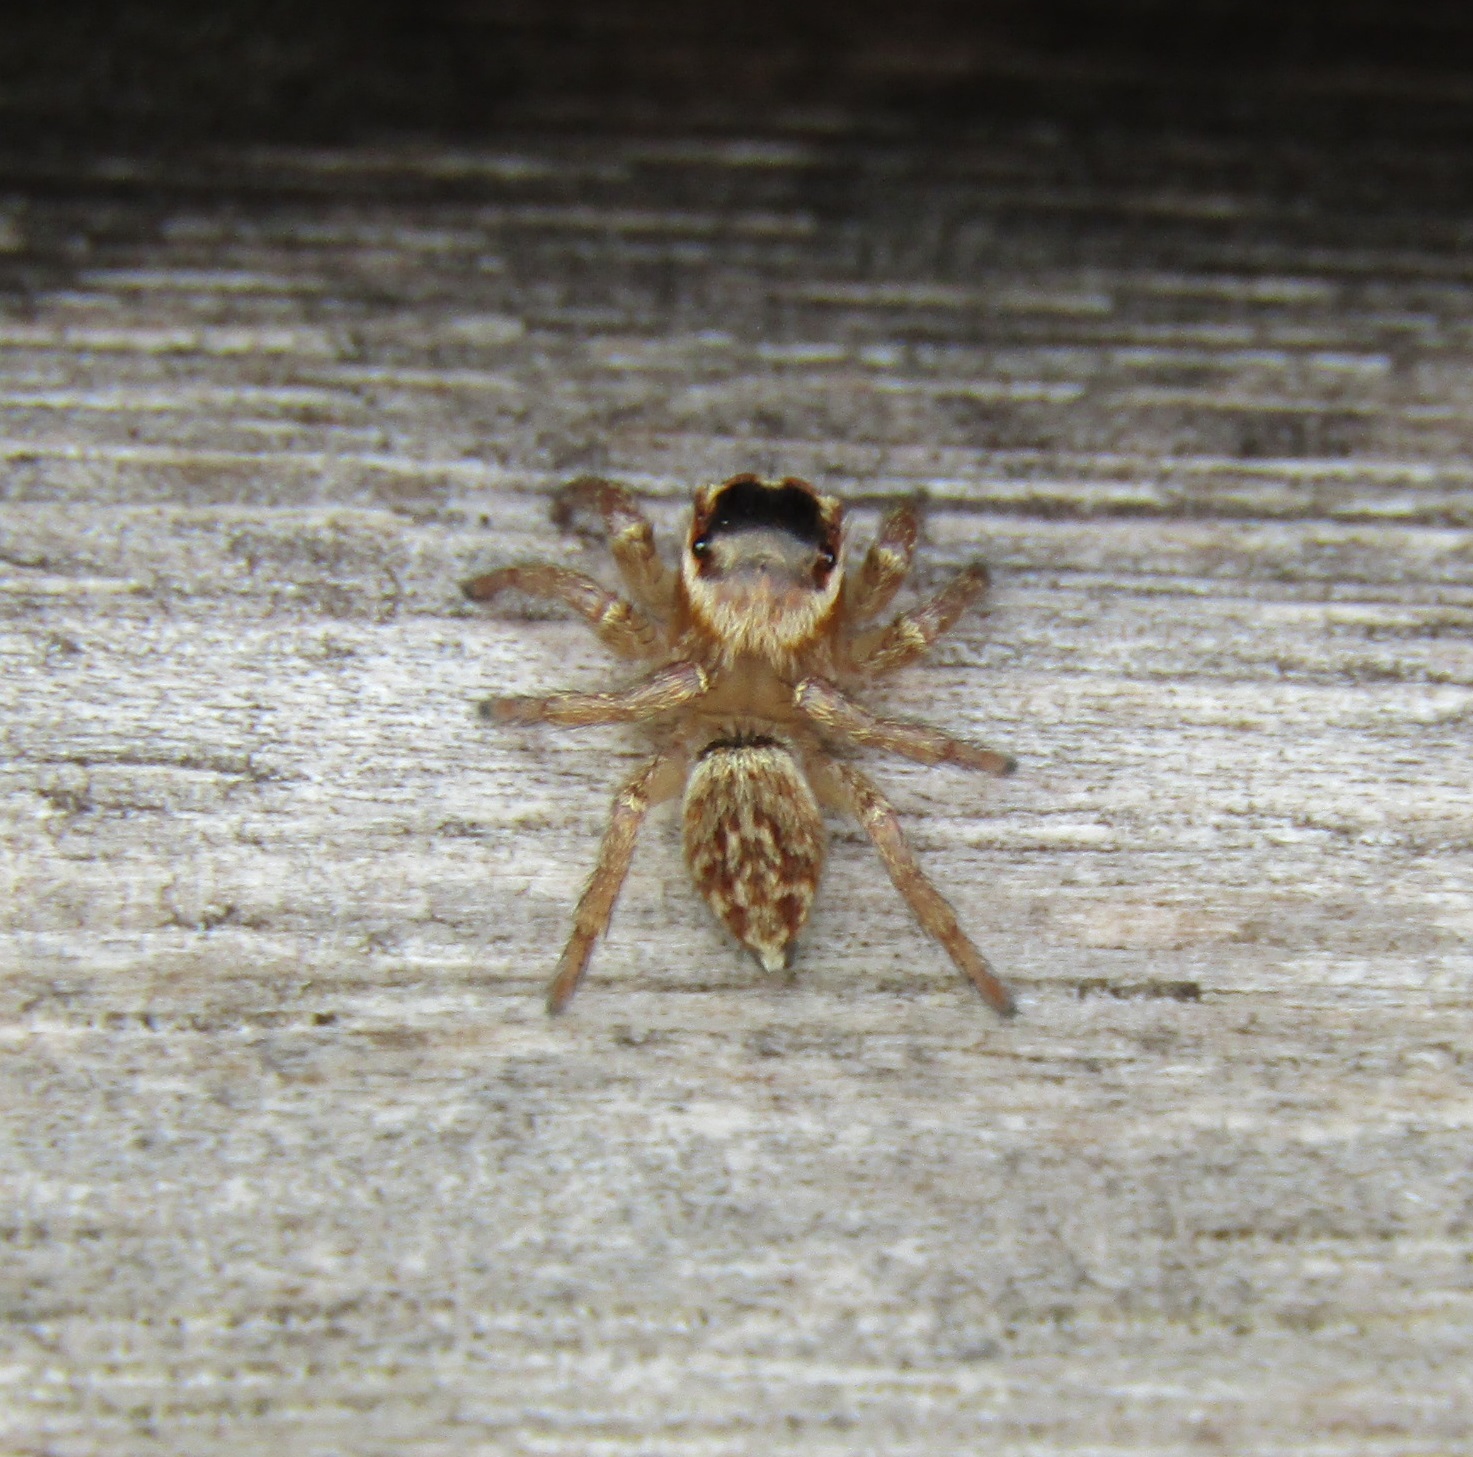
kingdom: Animalia
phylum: Arthropoda
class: Arachnida
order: Araneae
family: Salticidae
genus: Maratus
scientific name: Maratus griseus
